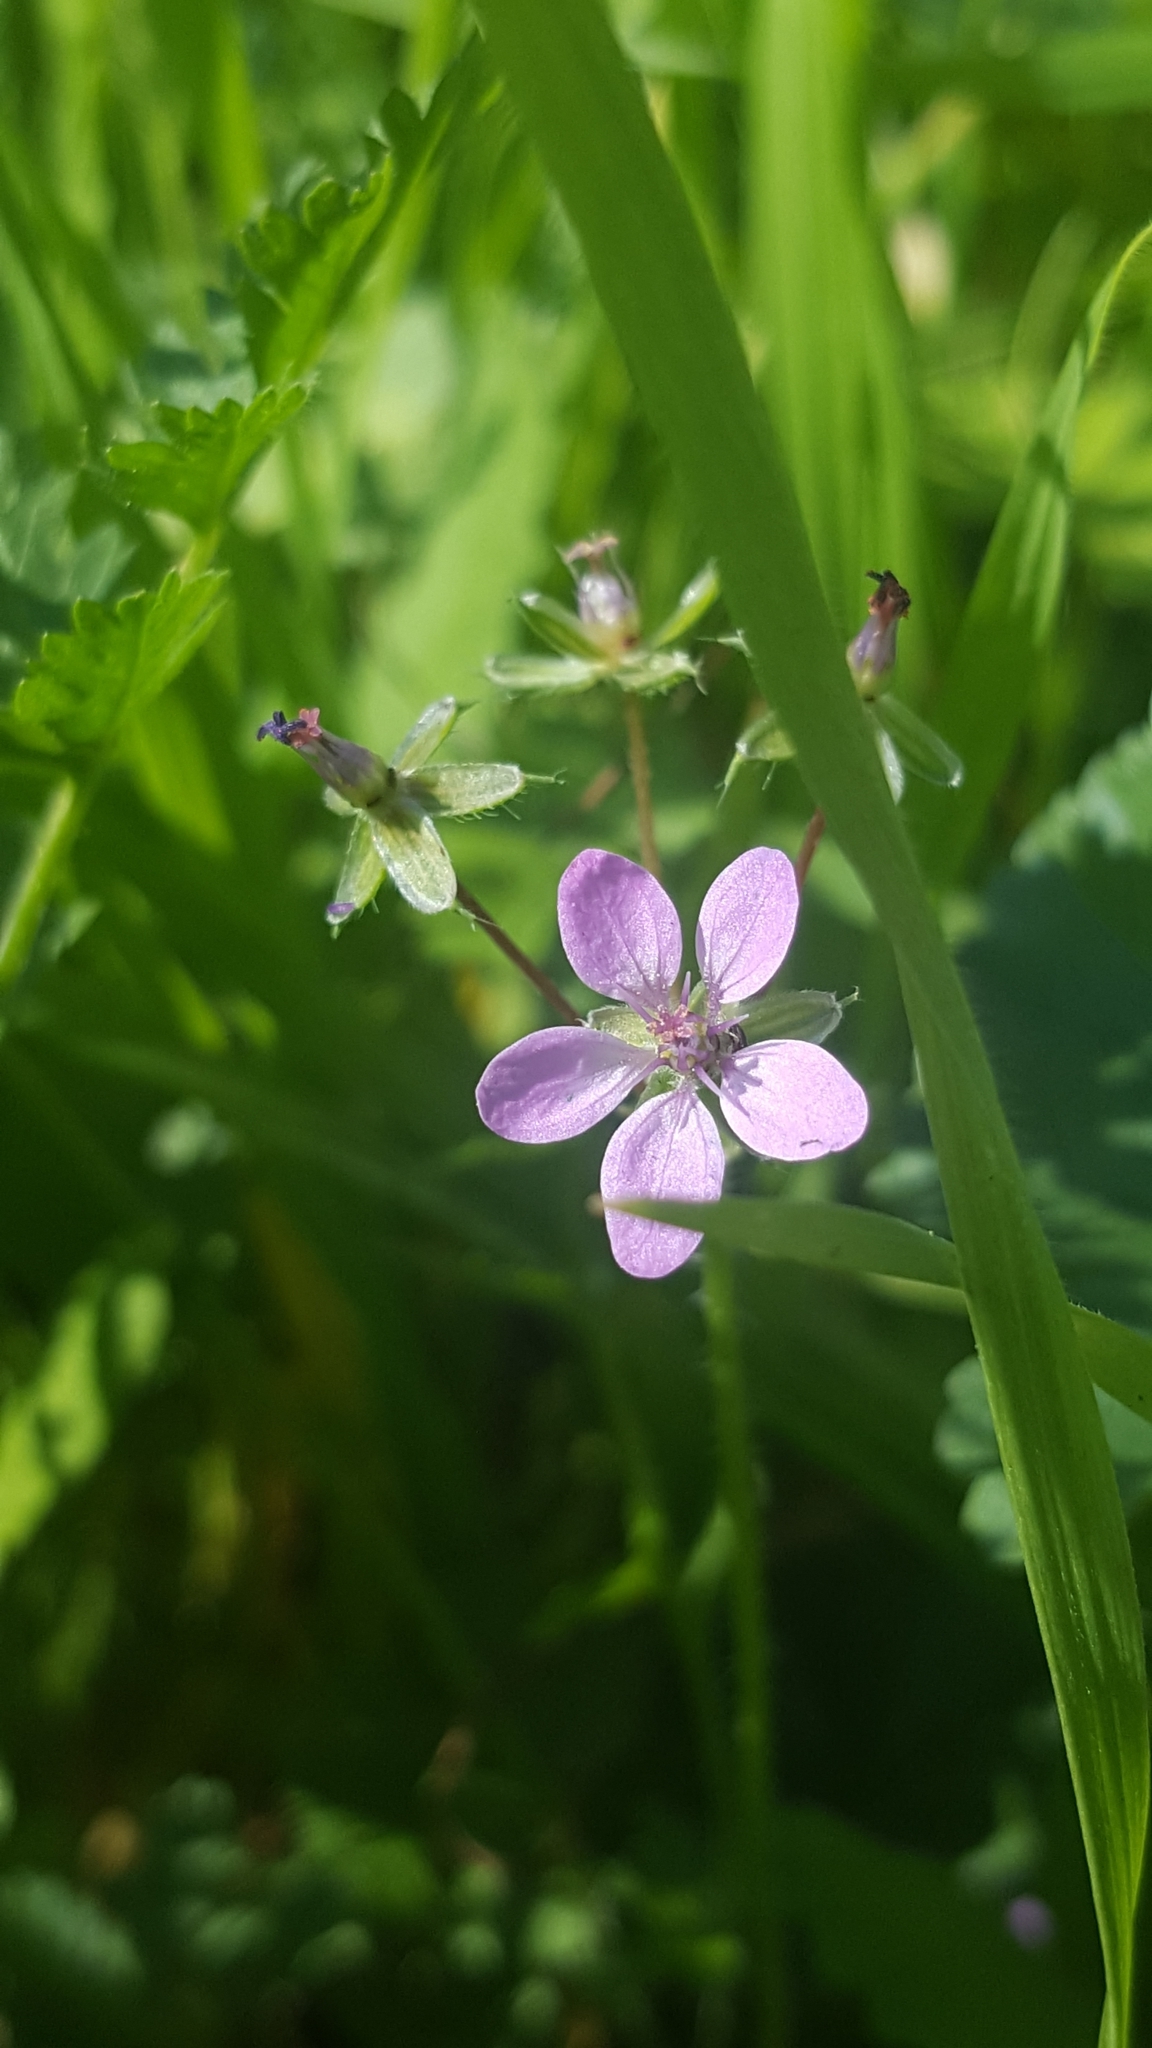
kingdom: Plantae
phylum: Tracheophyta
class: Magnoliopsida
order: Geraniales
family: Geraniaceae
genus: Erodium
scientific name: Erodium cicutarium
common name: Common stork's-bill
